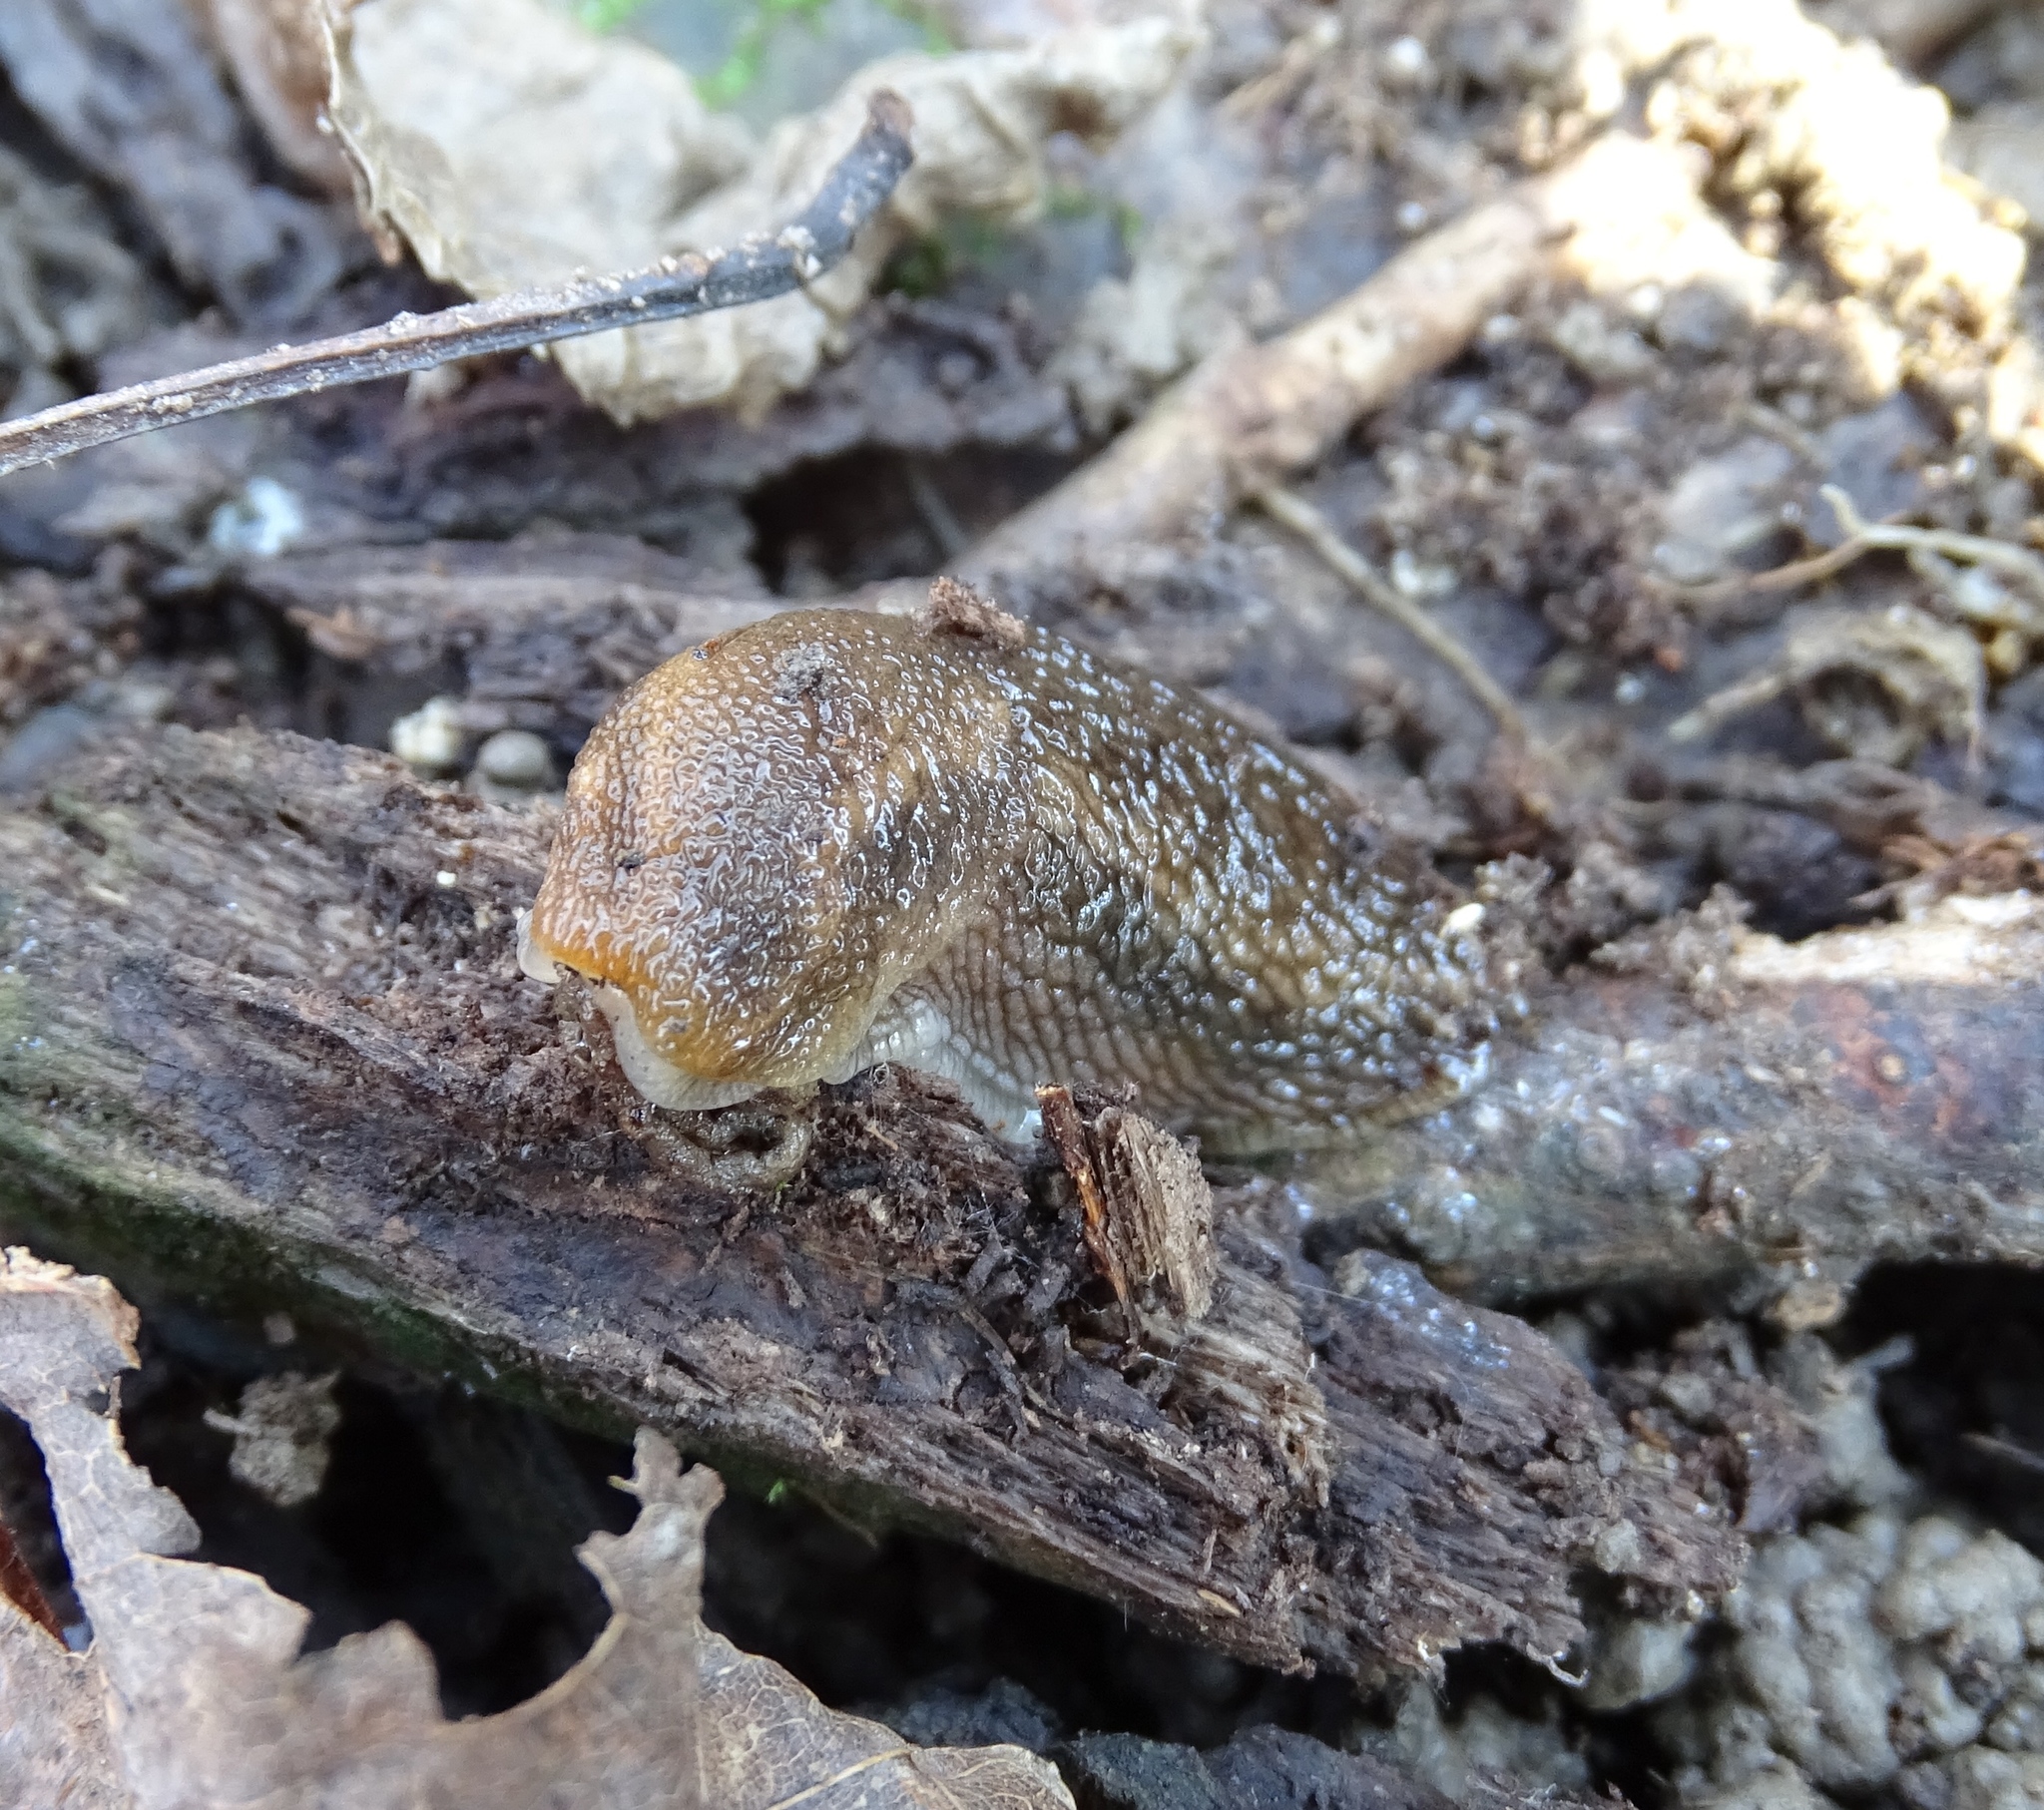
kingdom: Animalia
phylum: Mollusca
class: Gastropoda
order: Stylommatophora
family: Arionidae
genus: Arion
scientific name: Arion subfuscus
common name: Dusky arion
